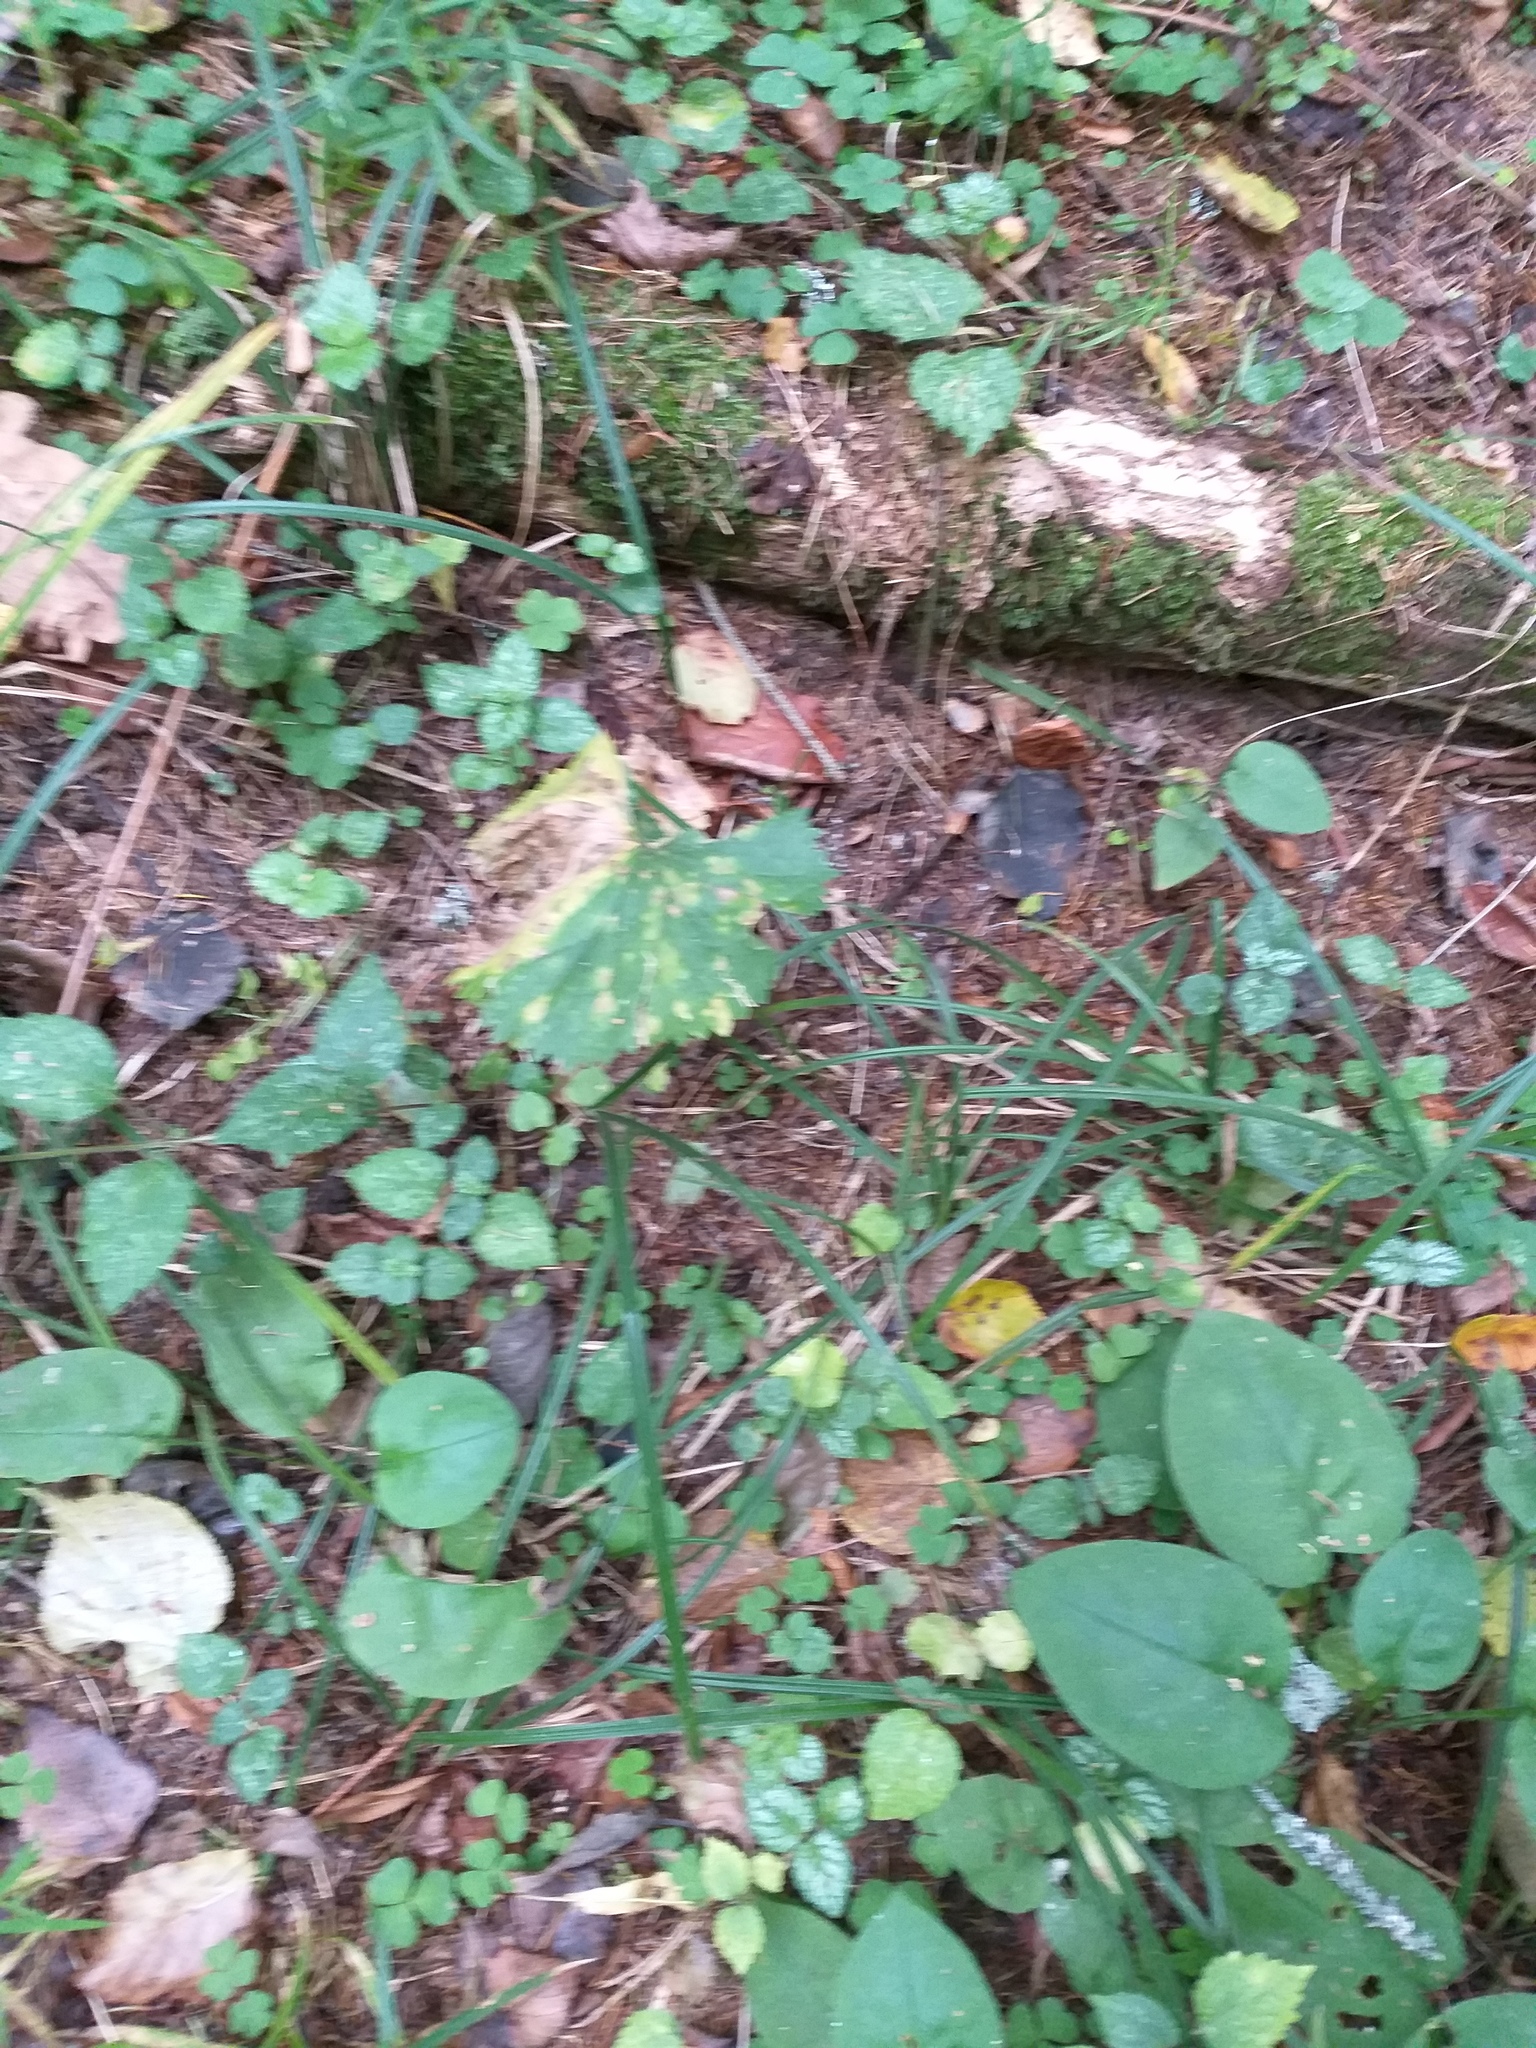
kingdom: Plantae
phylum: Tracheophyta
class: Magnoliopsida
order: Ranunculales
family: Ranunculaceae
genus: Ranunculus
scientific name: Ranunculus cassubicus
